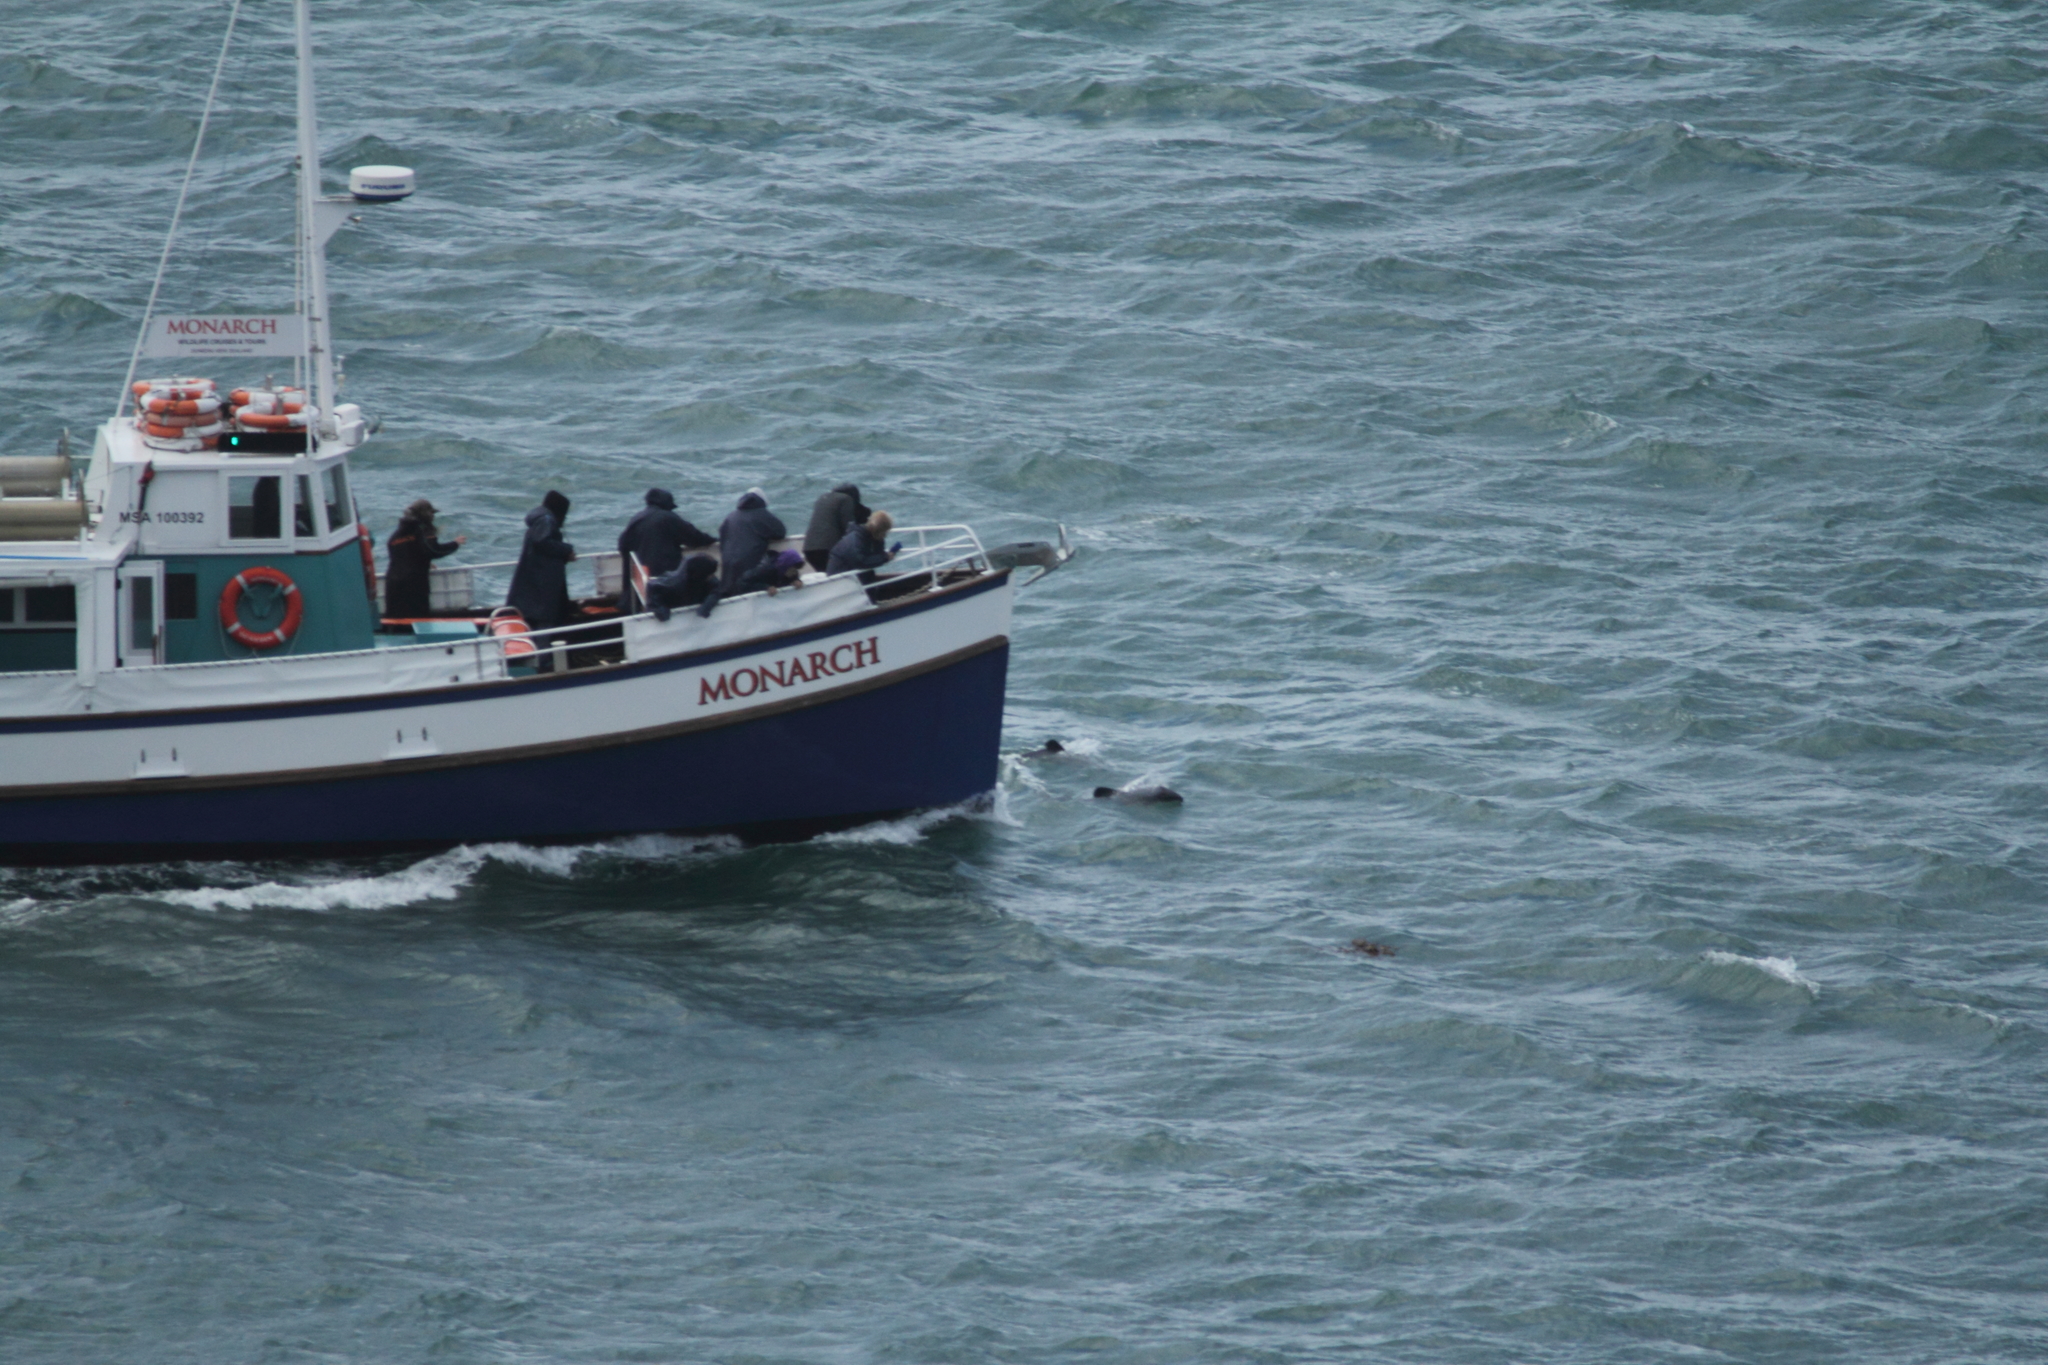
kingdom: Animalia
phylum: Chordata
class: Mammalia
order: Cetacea
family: Delphinidae
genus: Cephalorhynchus
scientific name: Cephalorhynchus hectori
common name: Hector's dolphin
